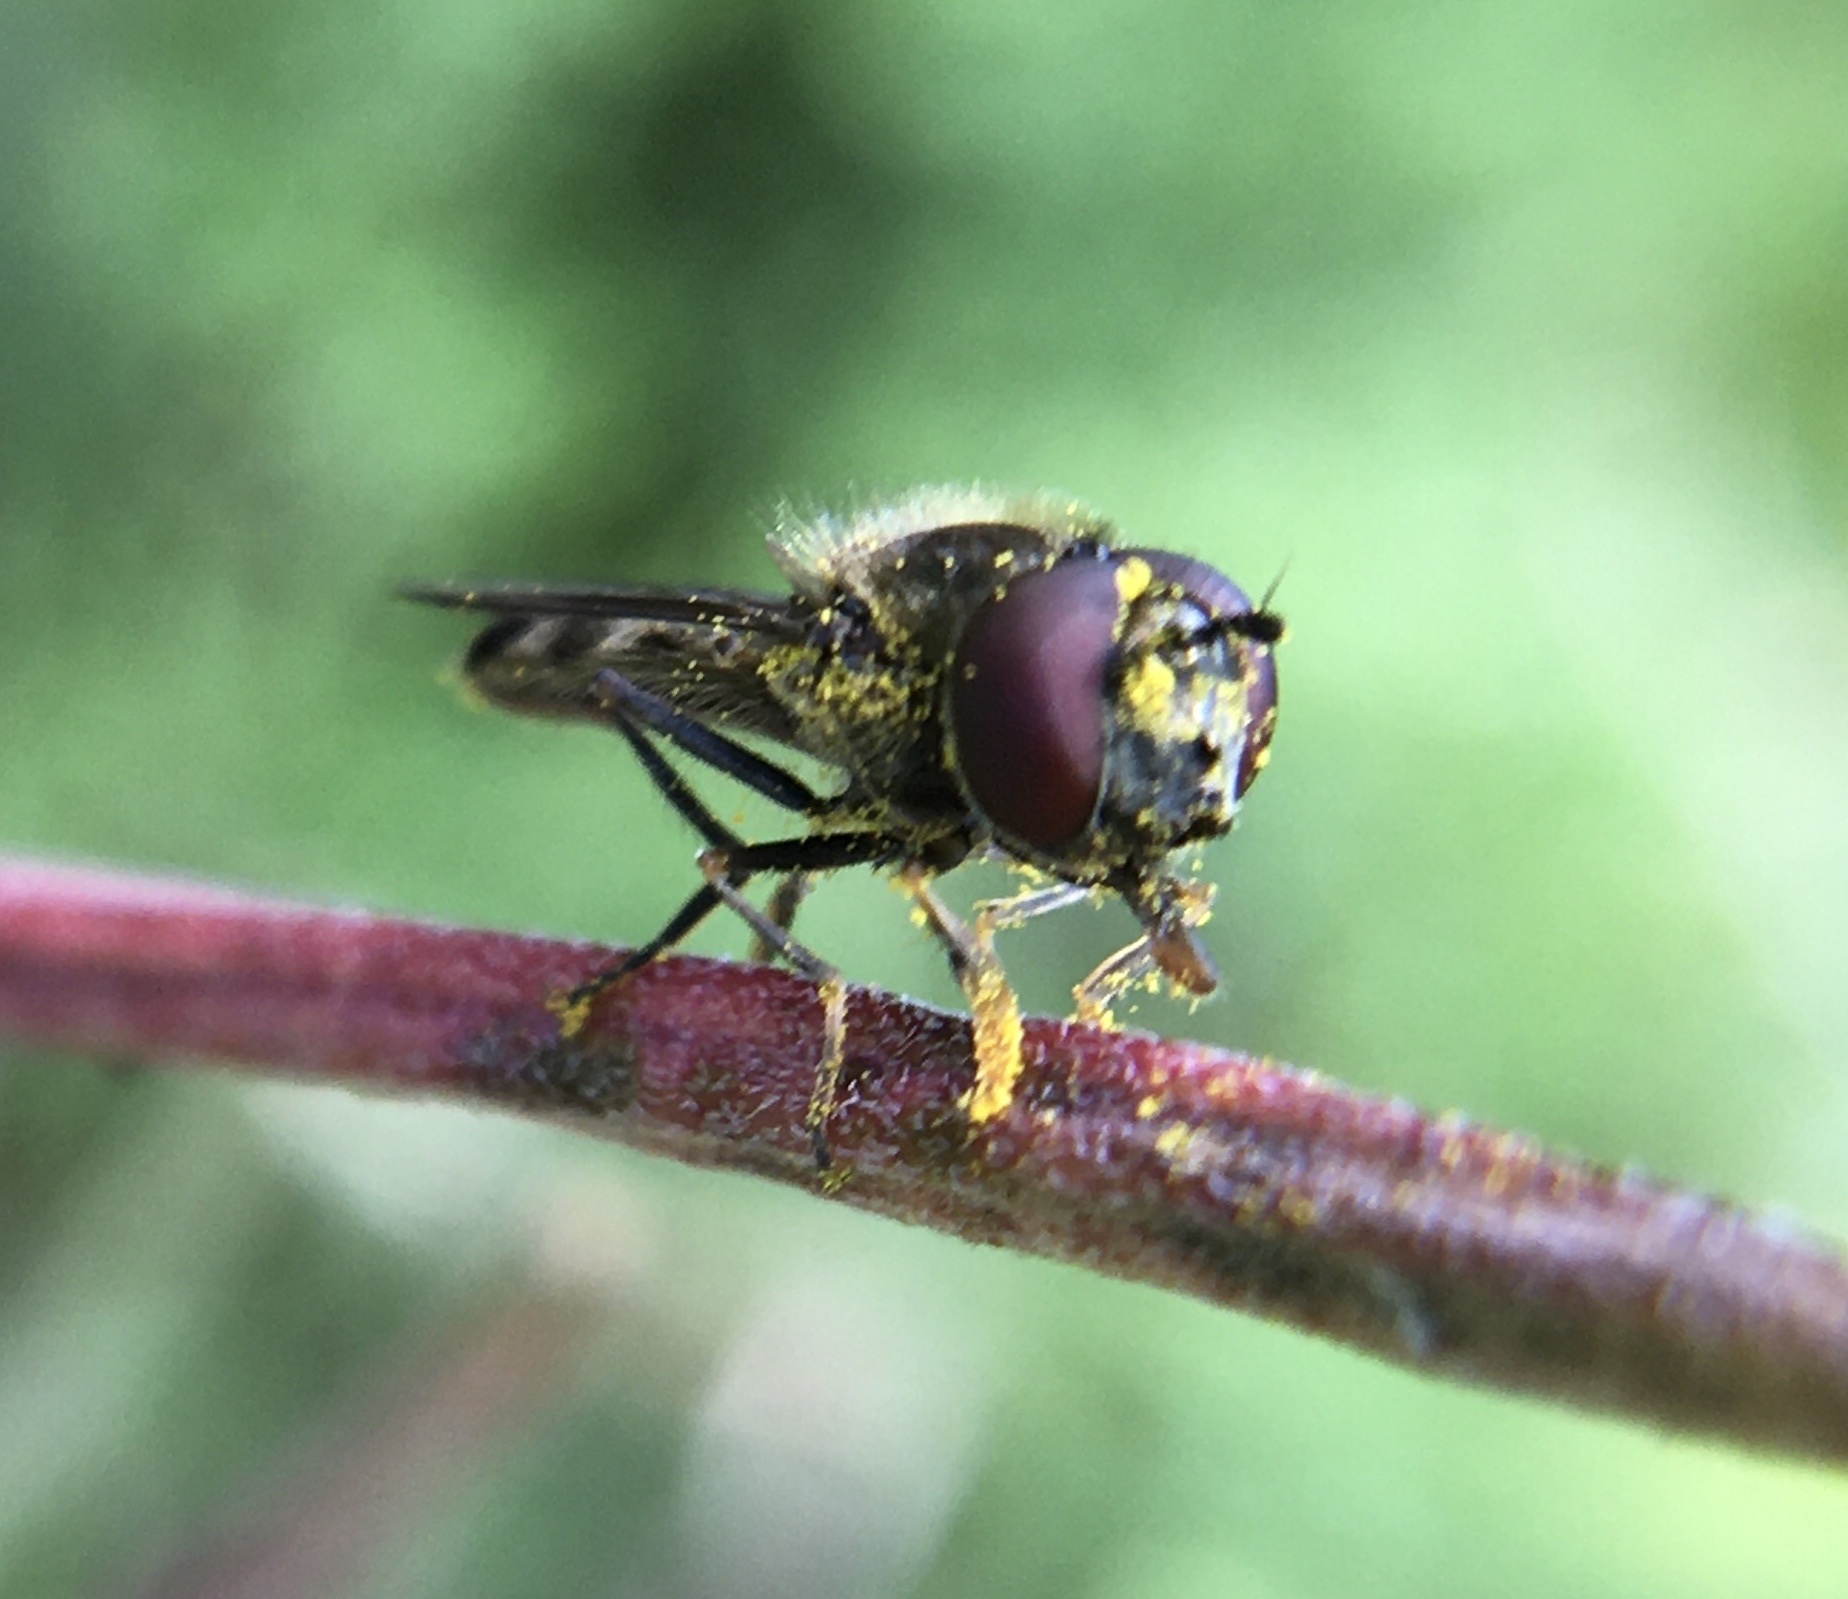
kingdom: Animalia
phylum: Arthropoda
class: Insecta
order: Diptera
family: Syrphidae
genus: Platycheirus
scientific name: Platycheirus
